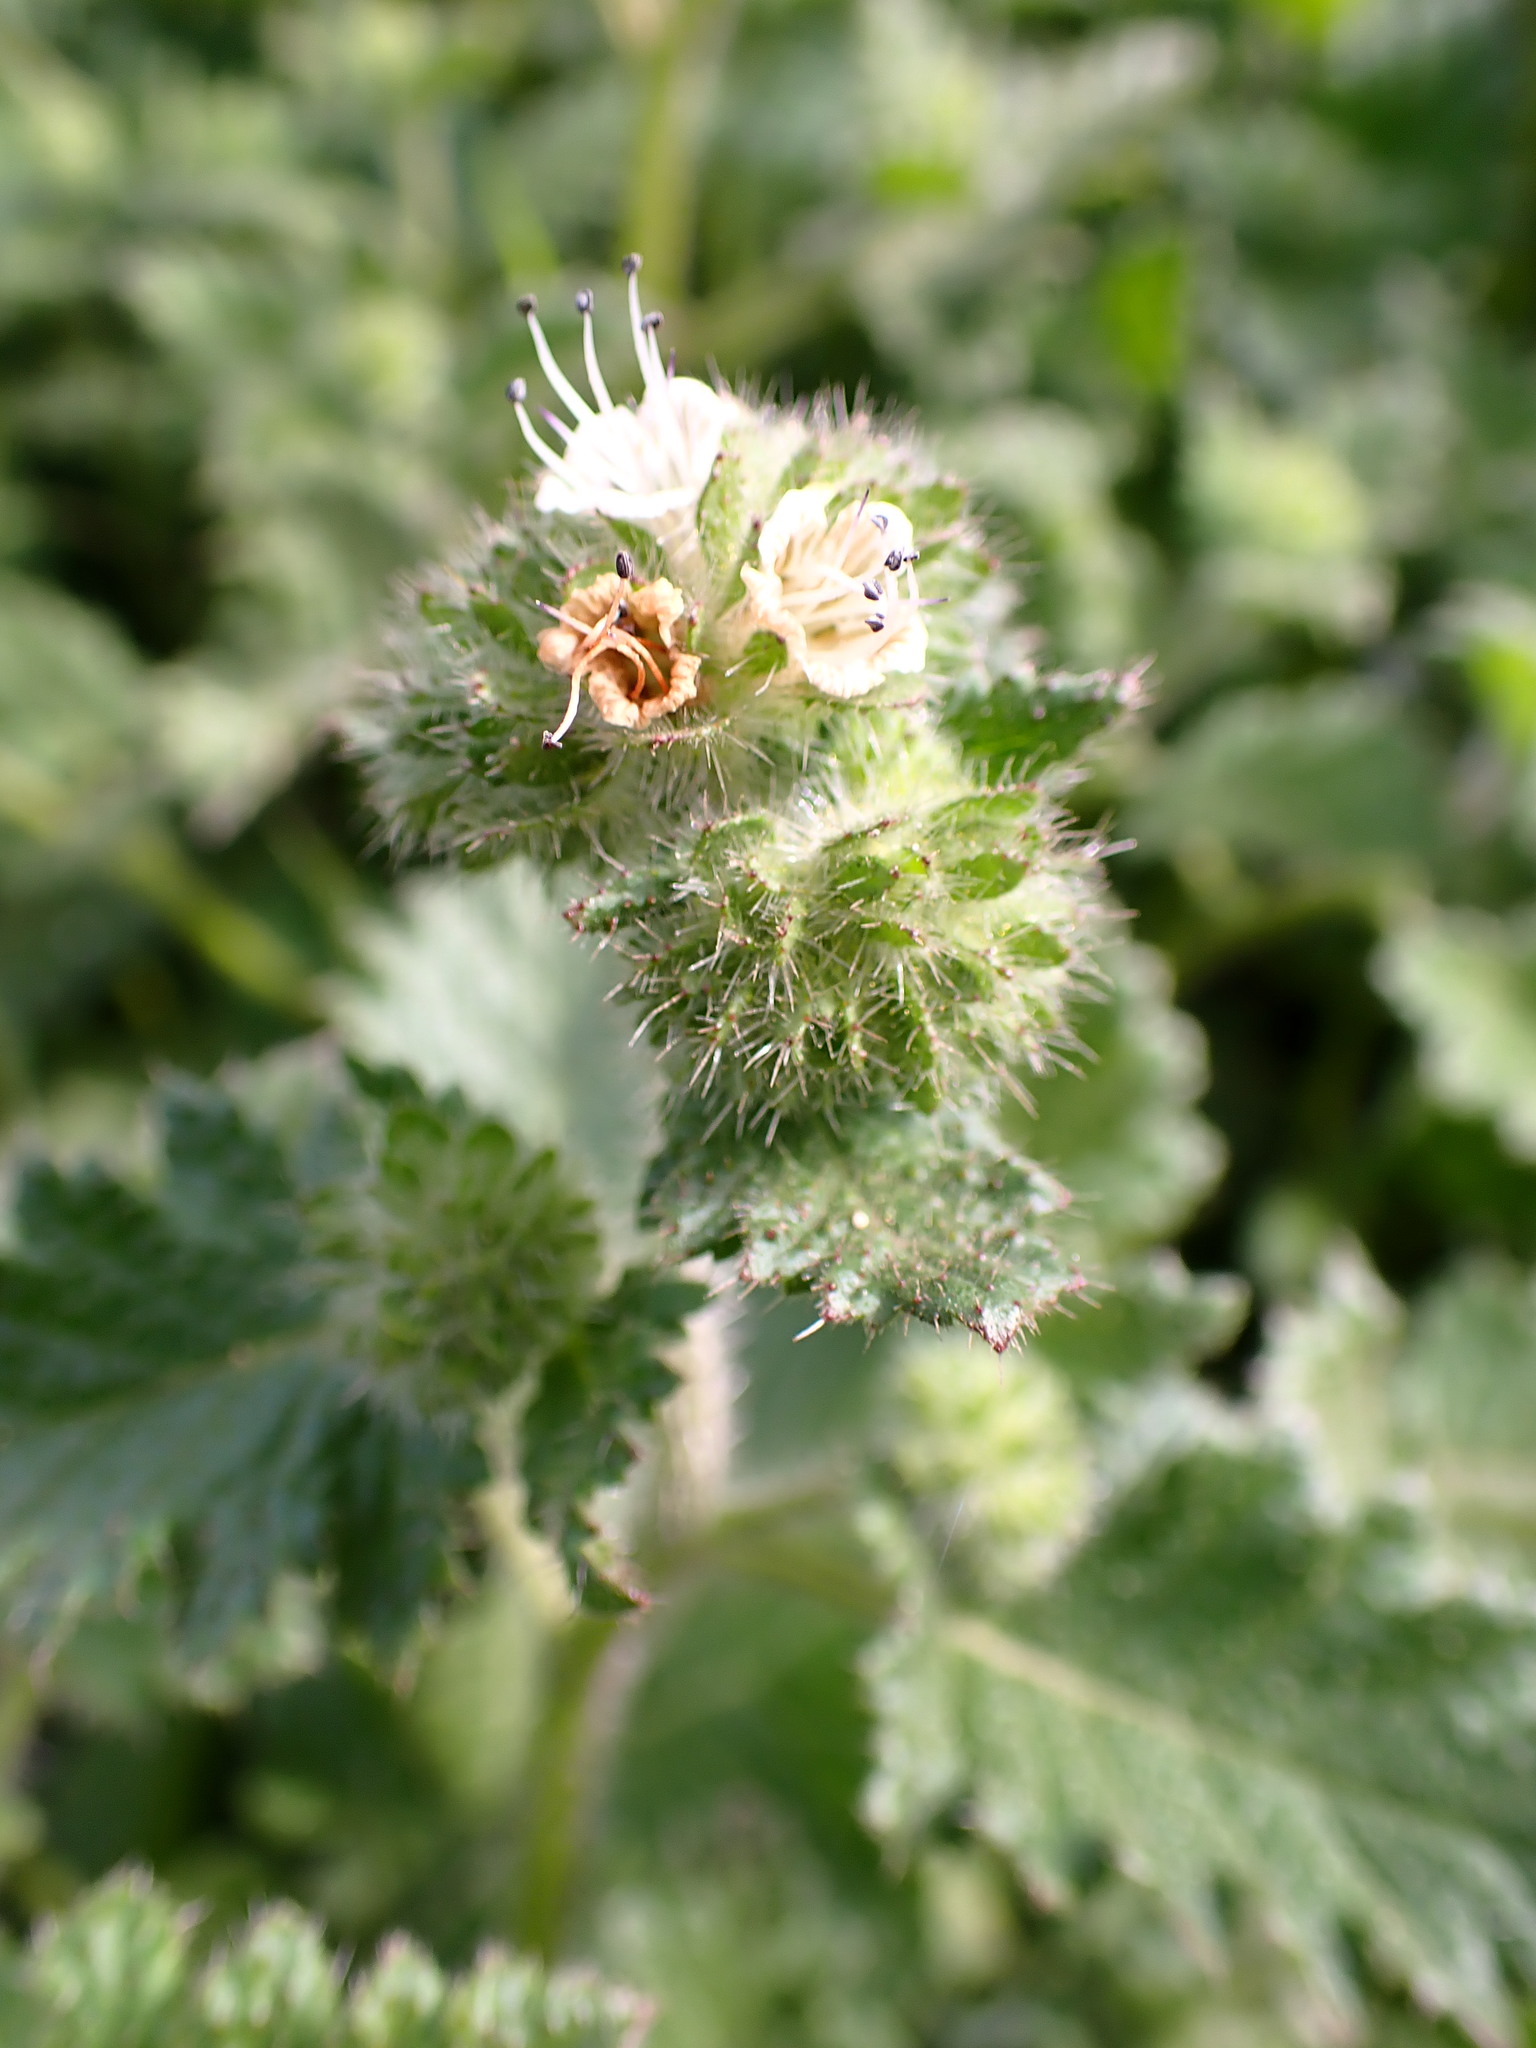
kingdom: Plantae
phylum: Tracheophyta
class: Magnoliopsida
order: Boraginales
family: Hydrophyllaceae
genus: Phacelia
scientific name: Phacelia malvifolia
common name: Mallow-leaf phacelia
